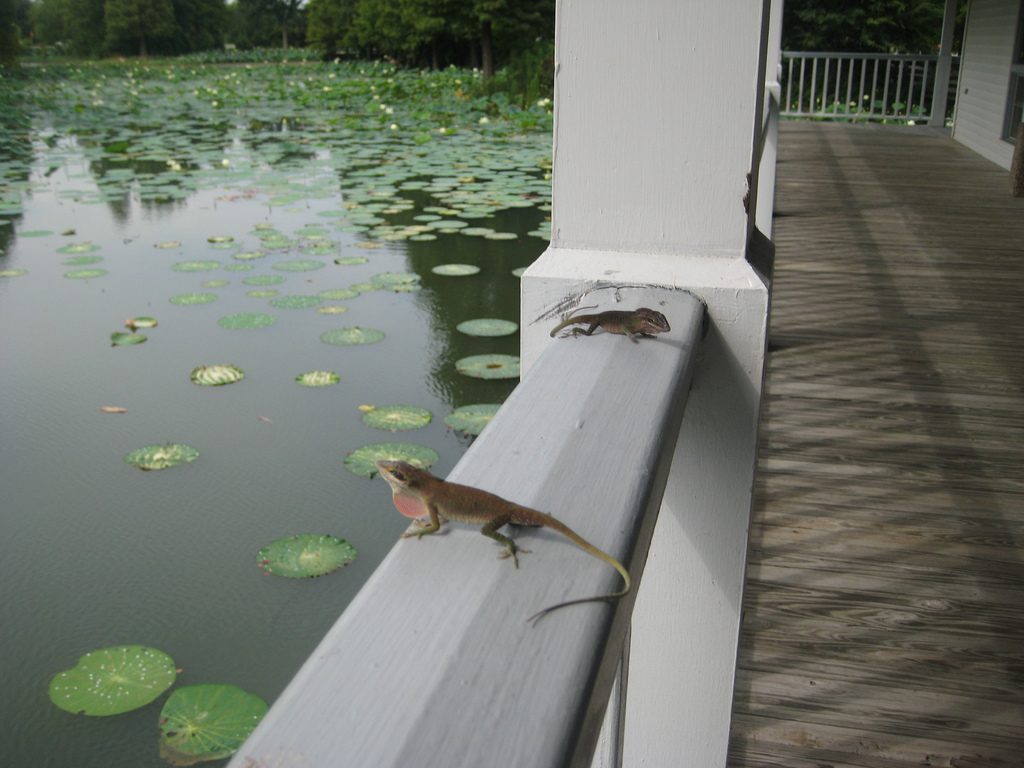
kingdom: Animalia
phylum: Chordata
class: Squamata
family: Dactyloidae
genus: Anolis
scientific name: Anolis carolinensis
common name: Green anole
